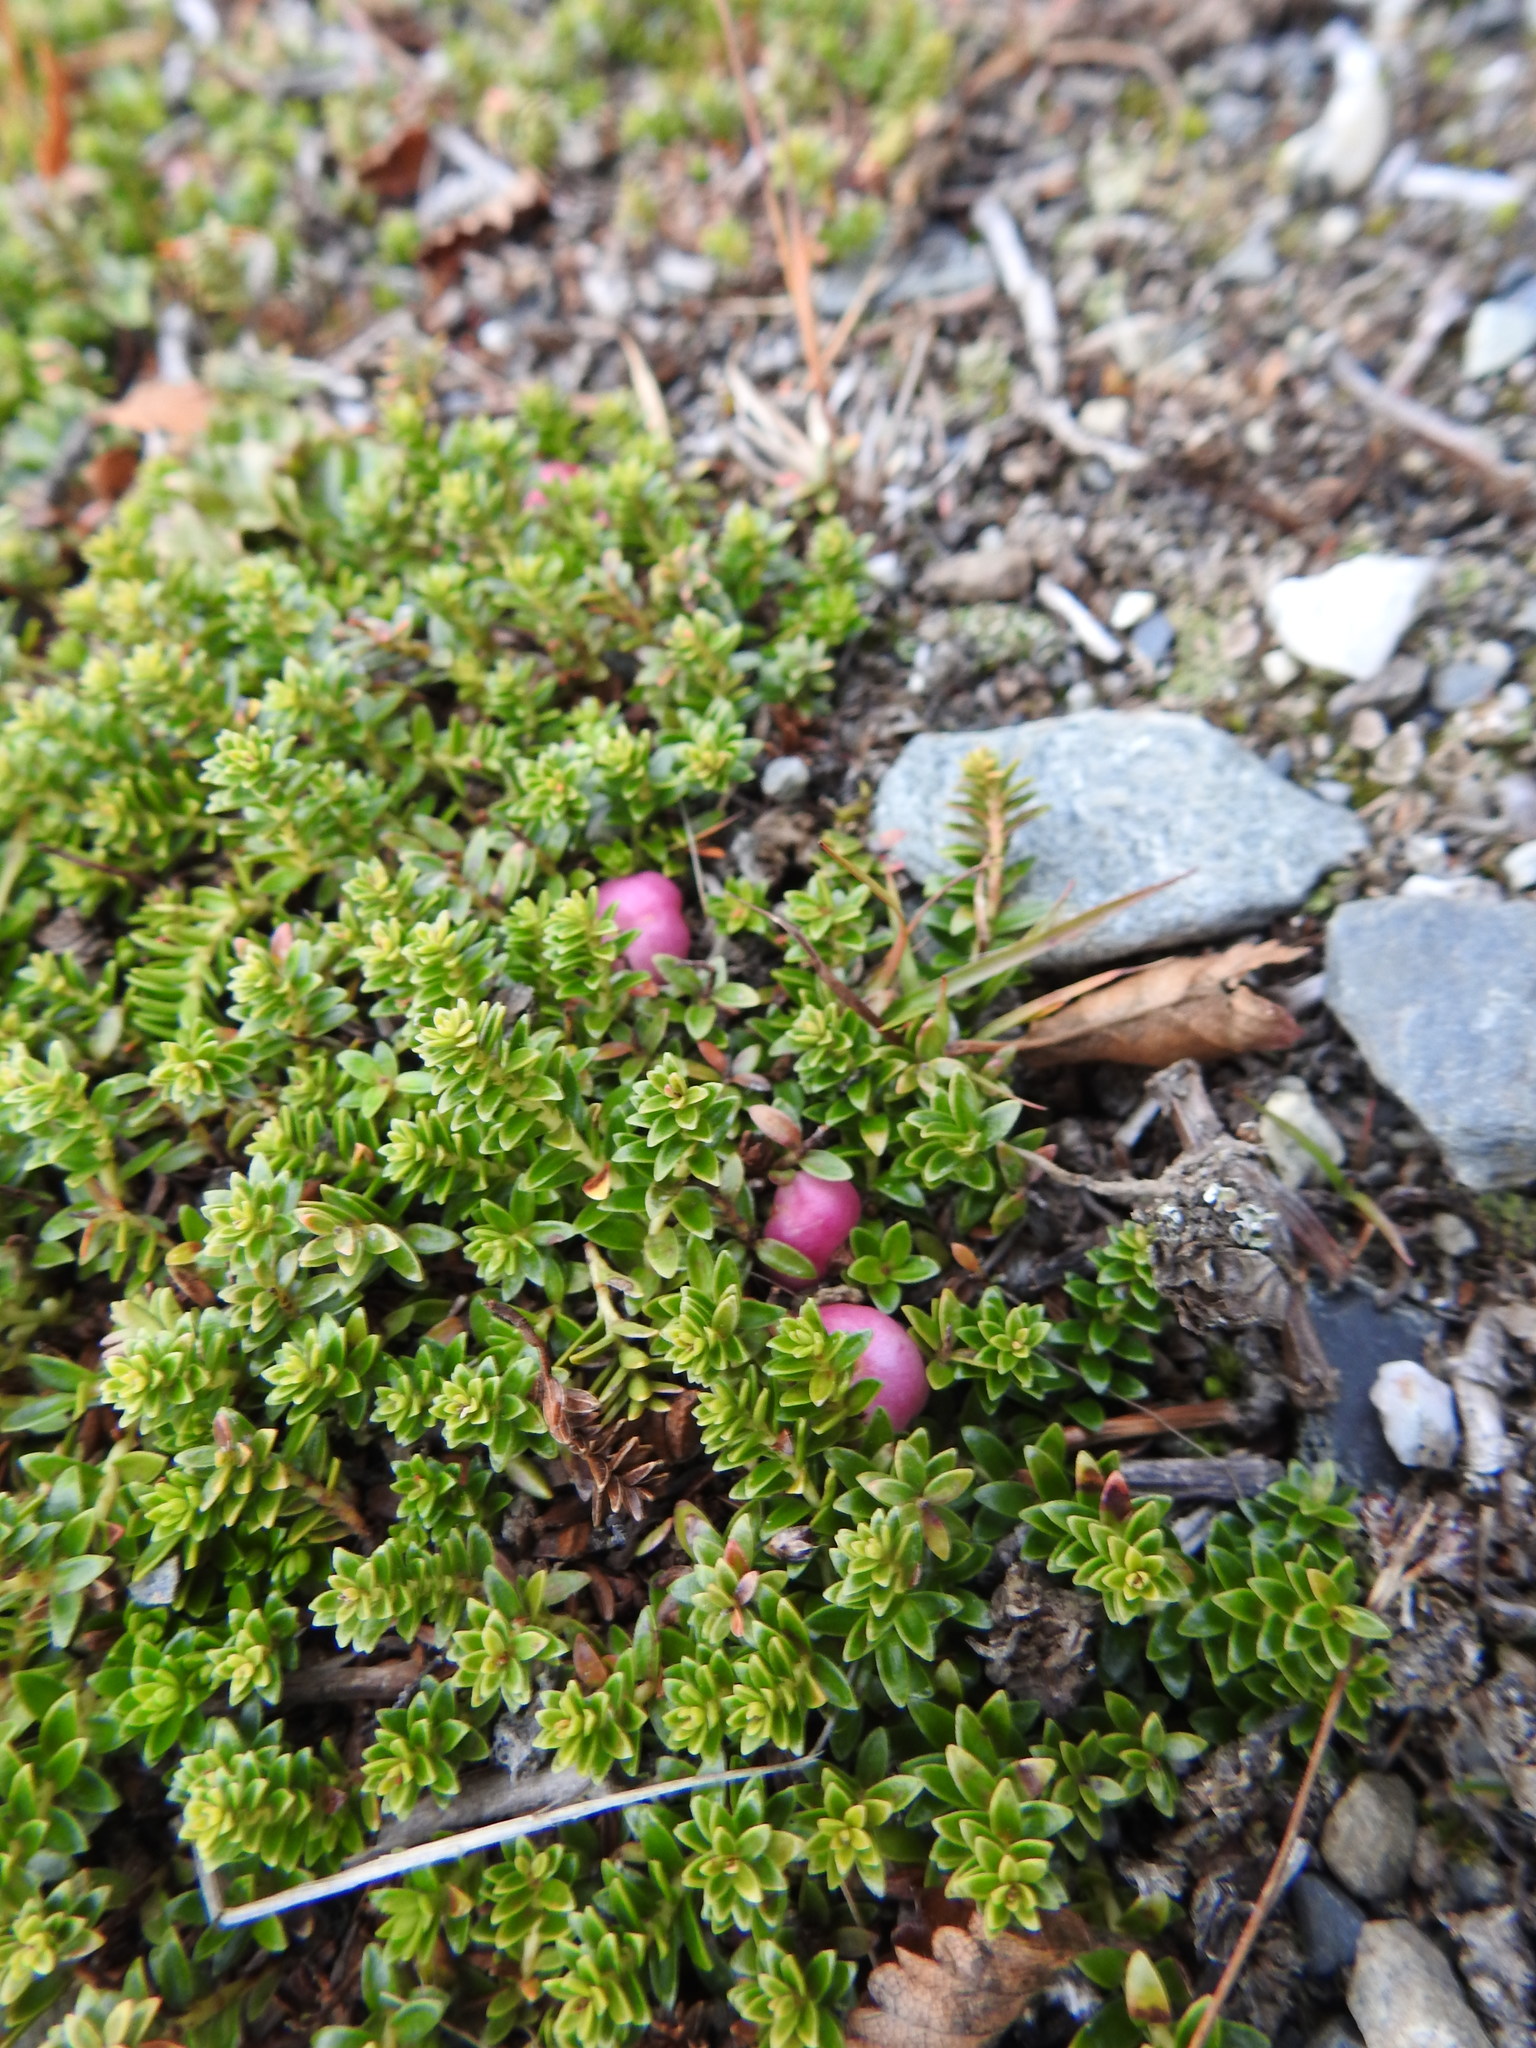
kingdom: Plantae
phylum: Tracheophyta
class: Magnoliopsida
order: Ericales
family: Ericaceae
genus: Gaultheria
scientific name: Gaultheria pumila
